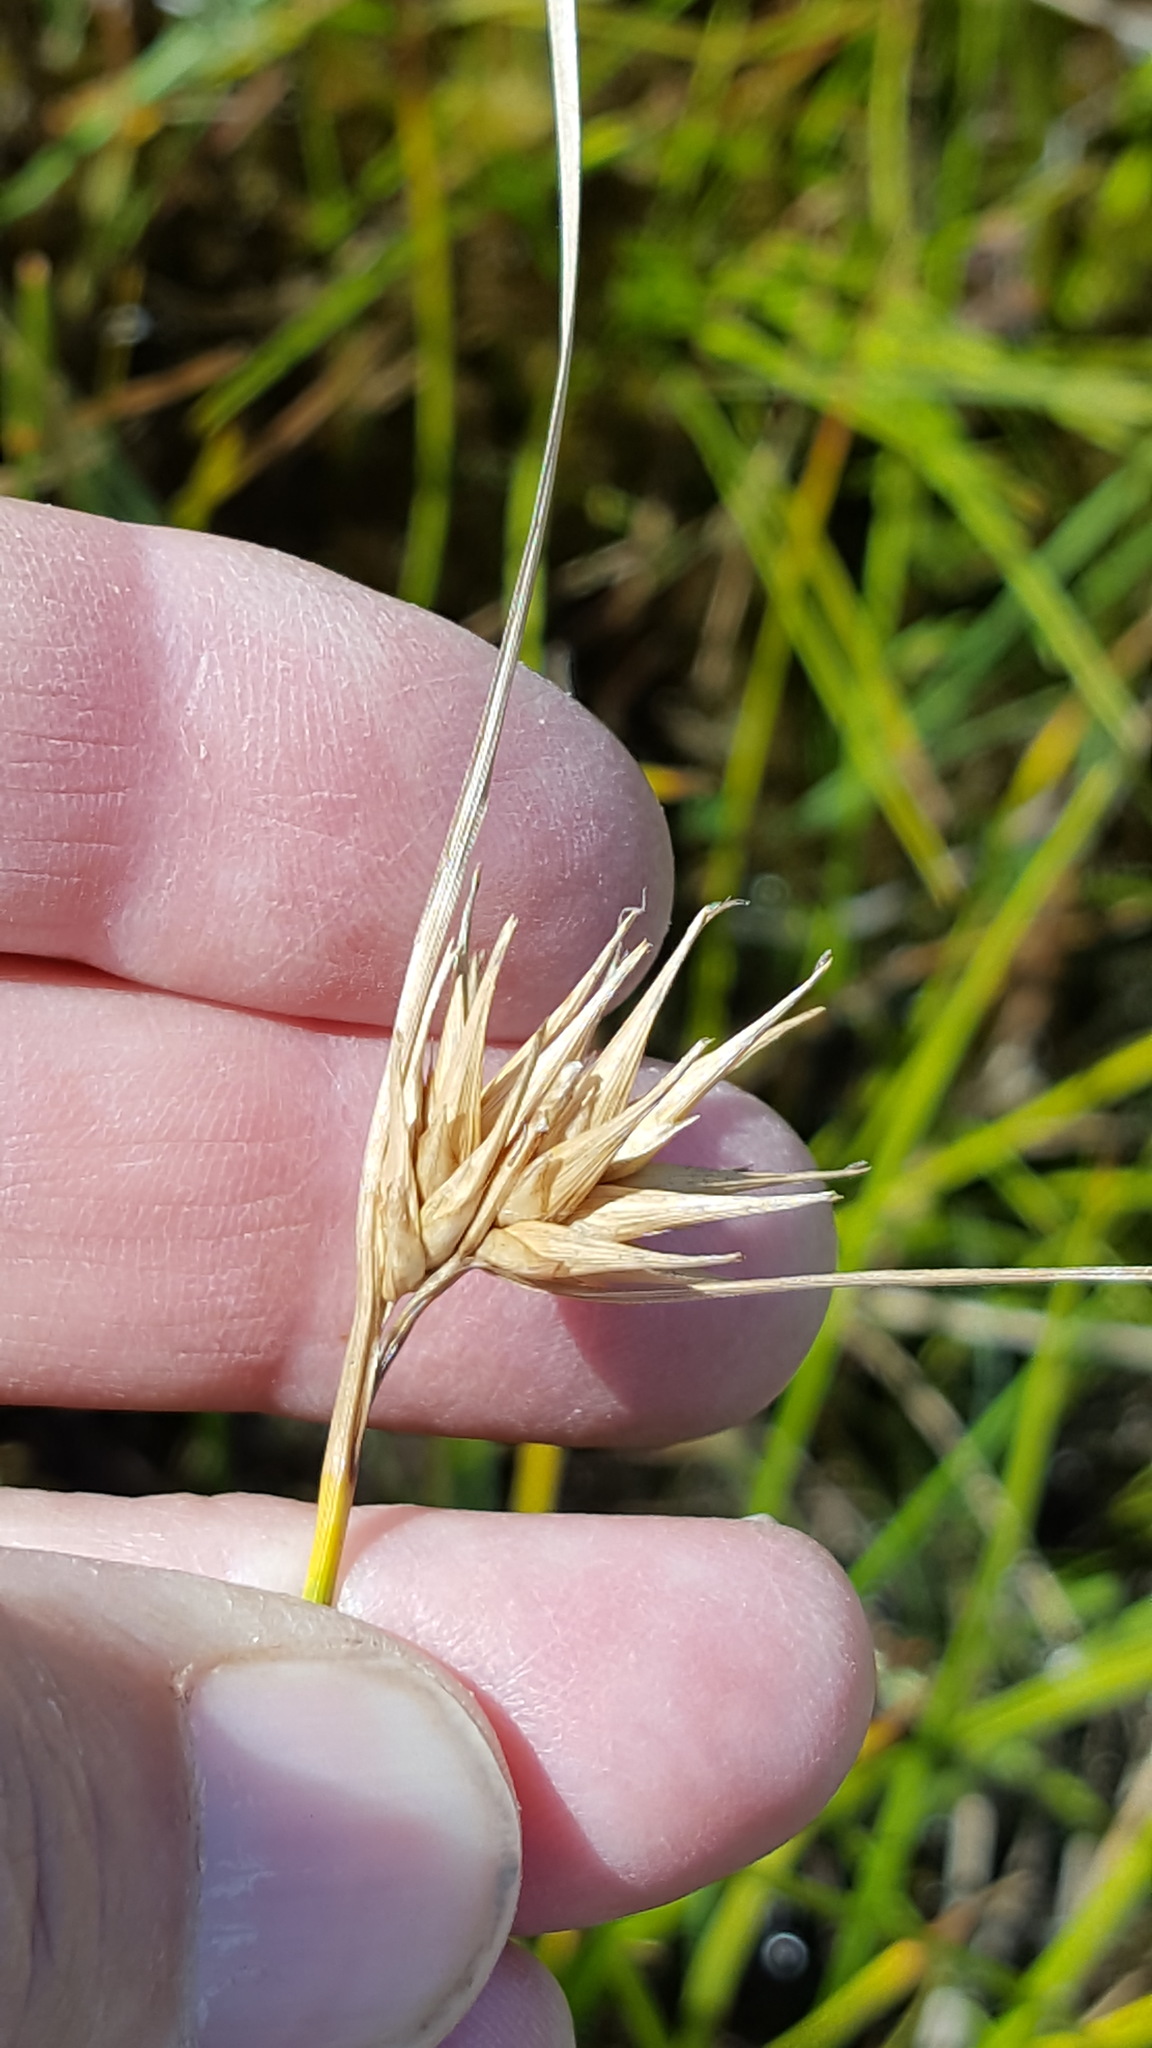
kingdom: Plantae
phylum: Tracheophyta
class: Liliopsida
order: Poales
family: Cyperaceae
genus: Carex
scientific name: Carex michauxiana
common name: Michaux's sedge
